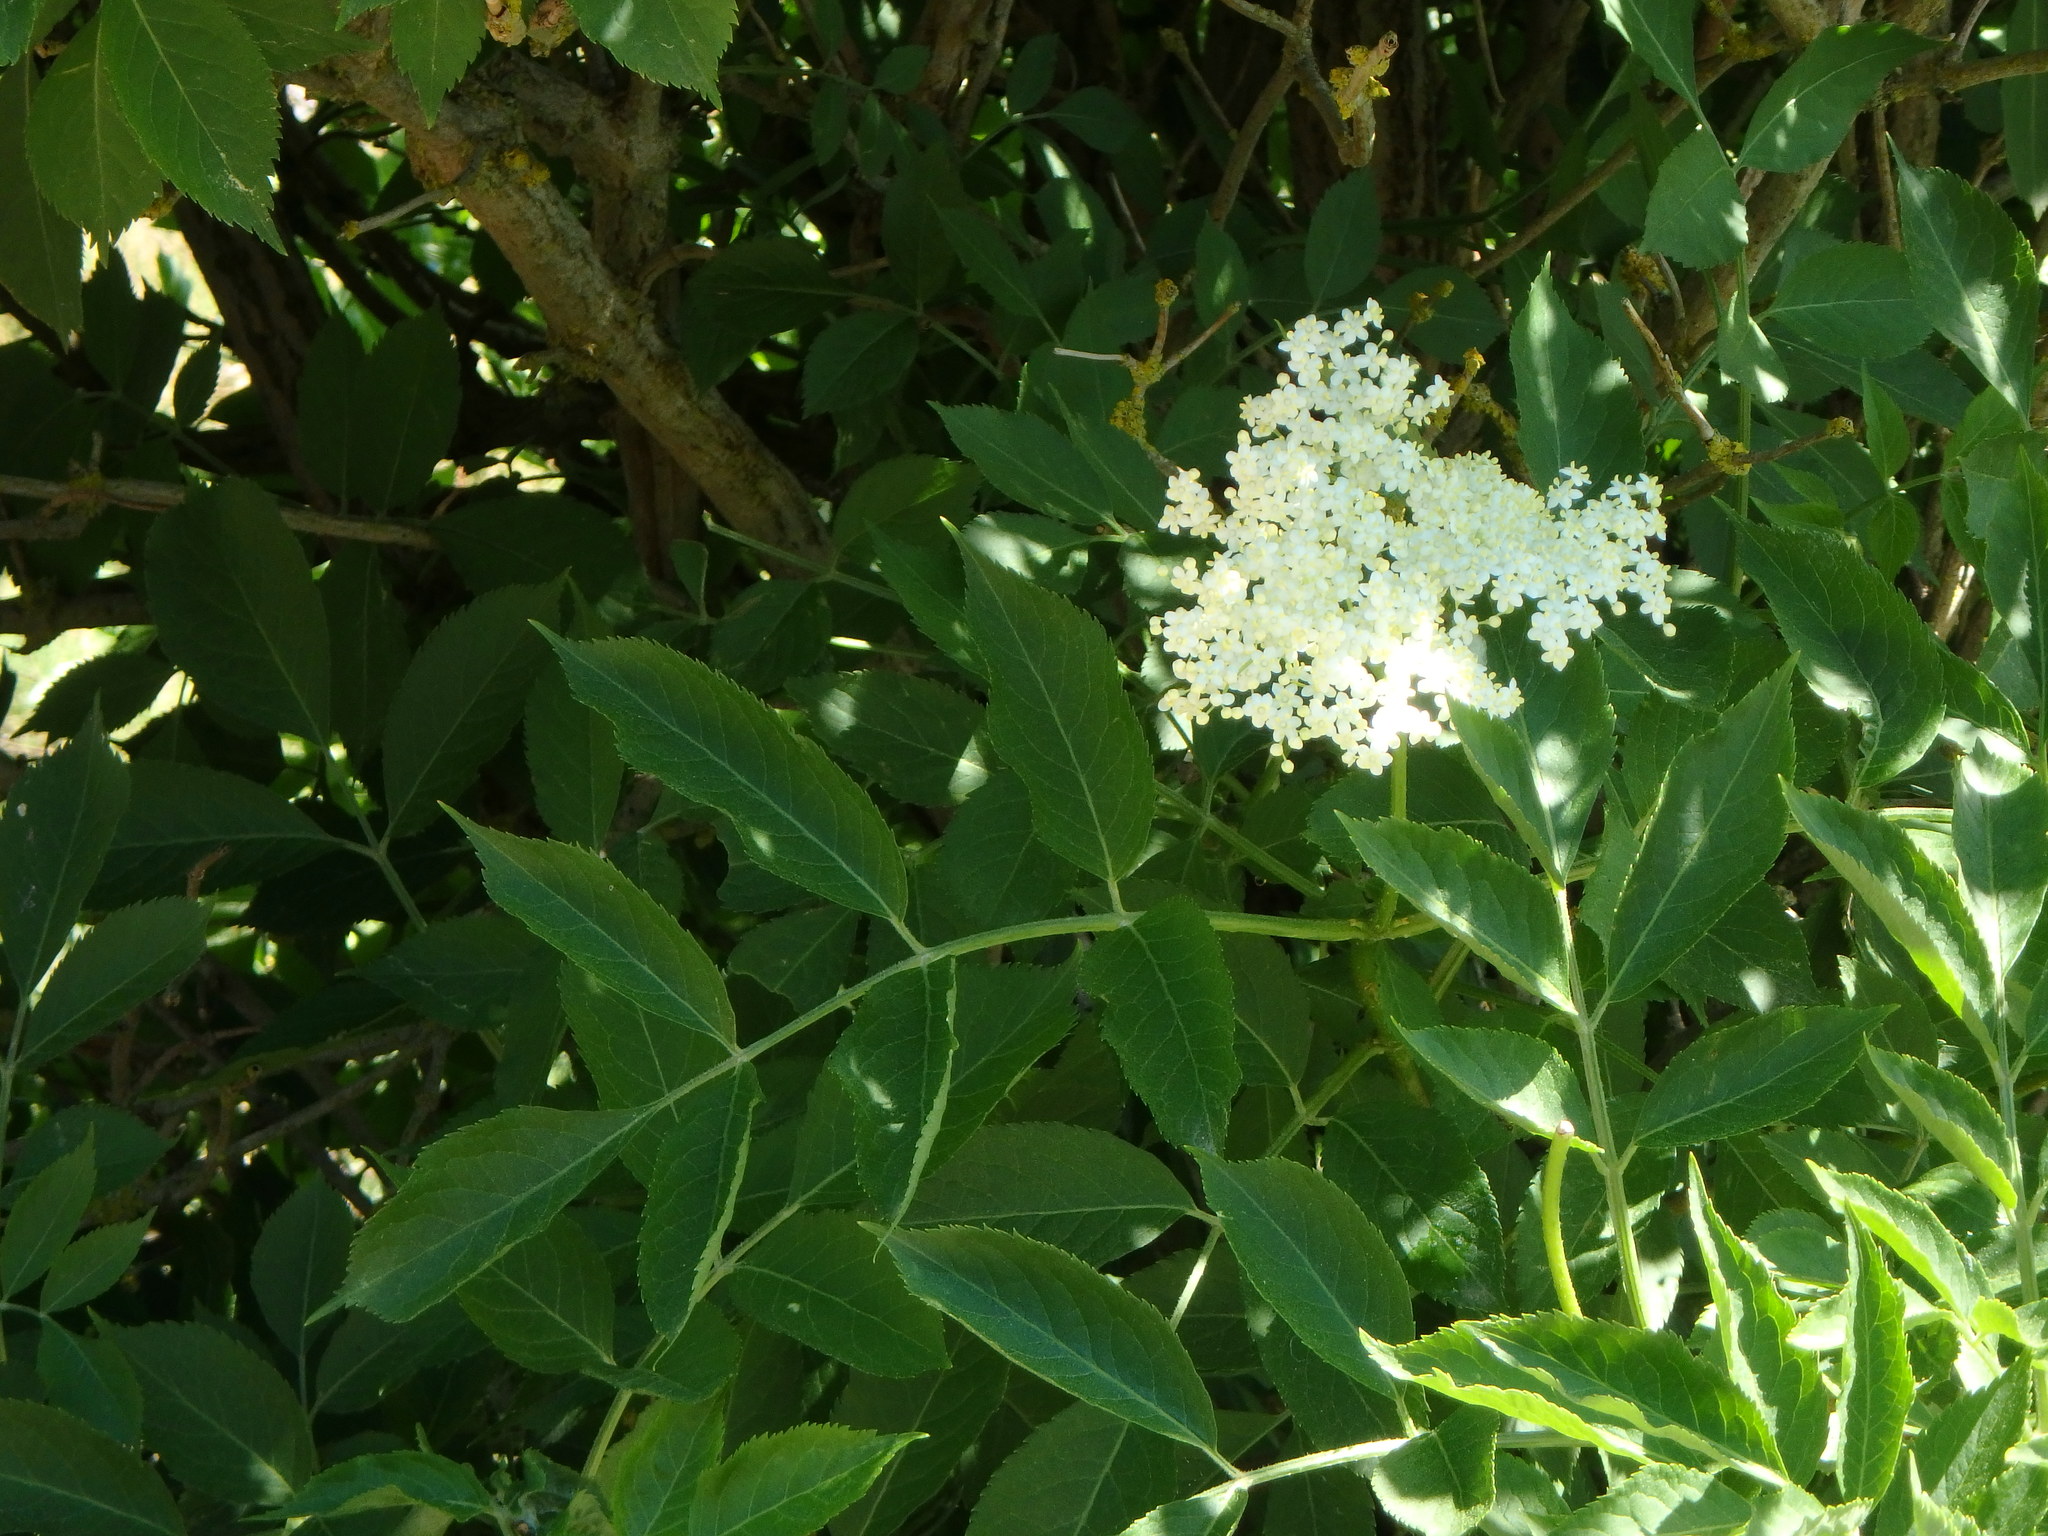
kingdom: Plantae
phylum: Tracheophyta
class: Magnoliopsida
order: Dipsacales
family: Viburnaceae
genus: Sambucus
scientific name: Sambucus nigra
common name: Elder
